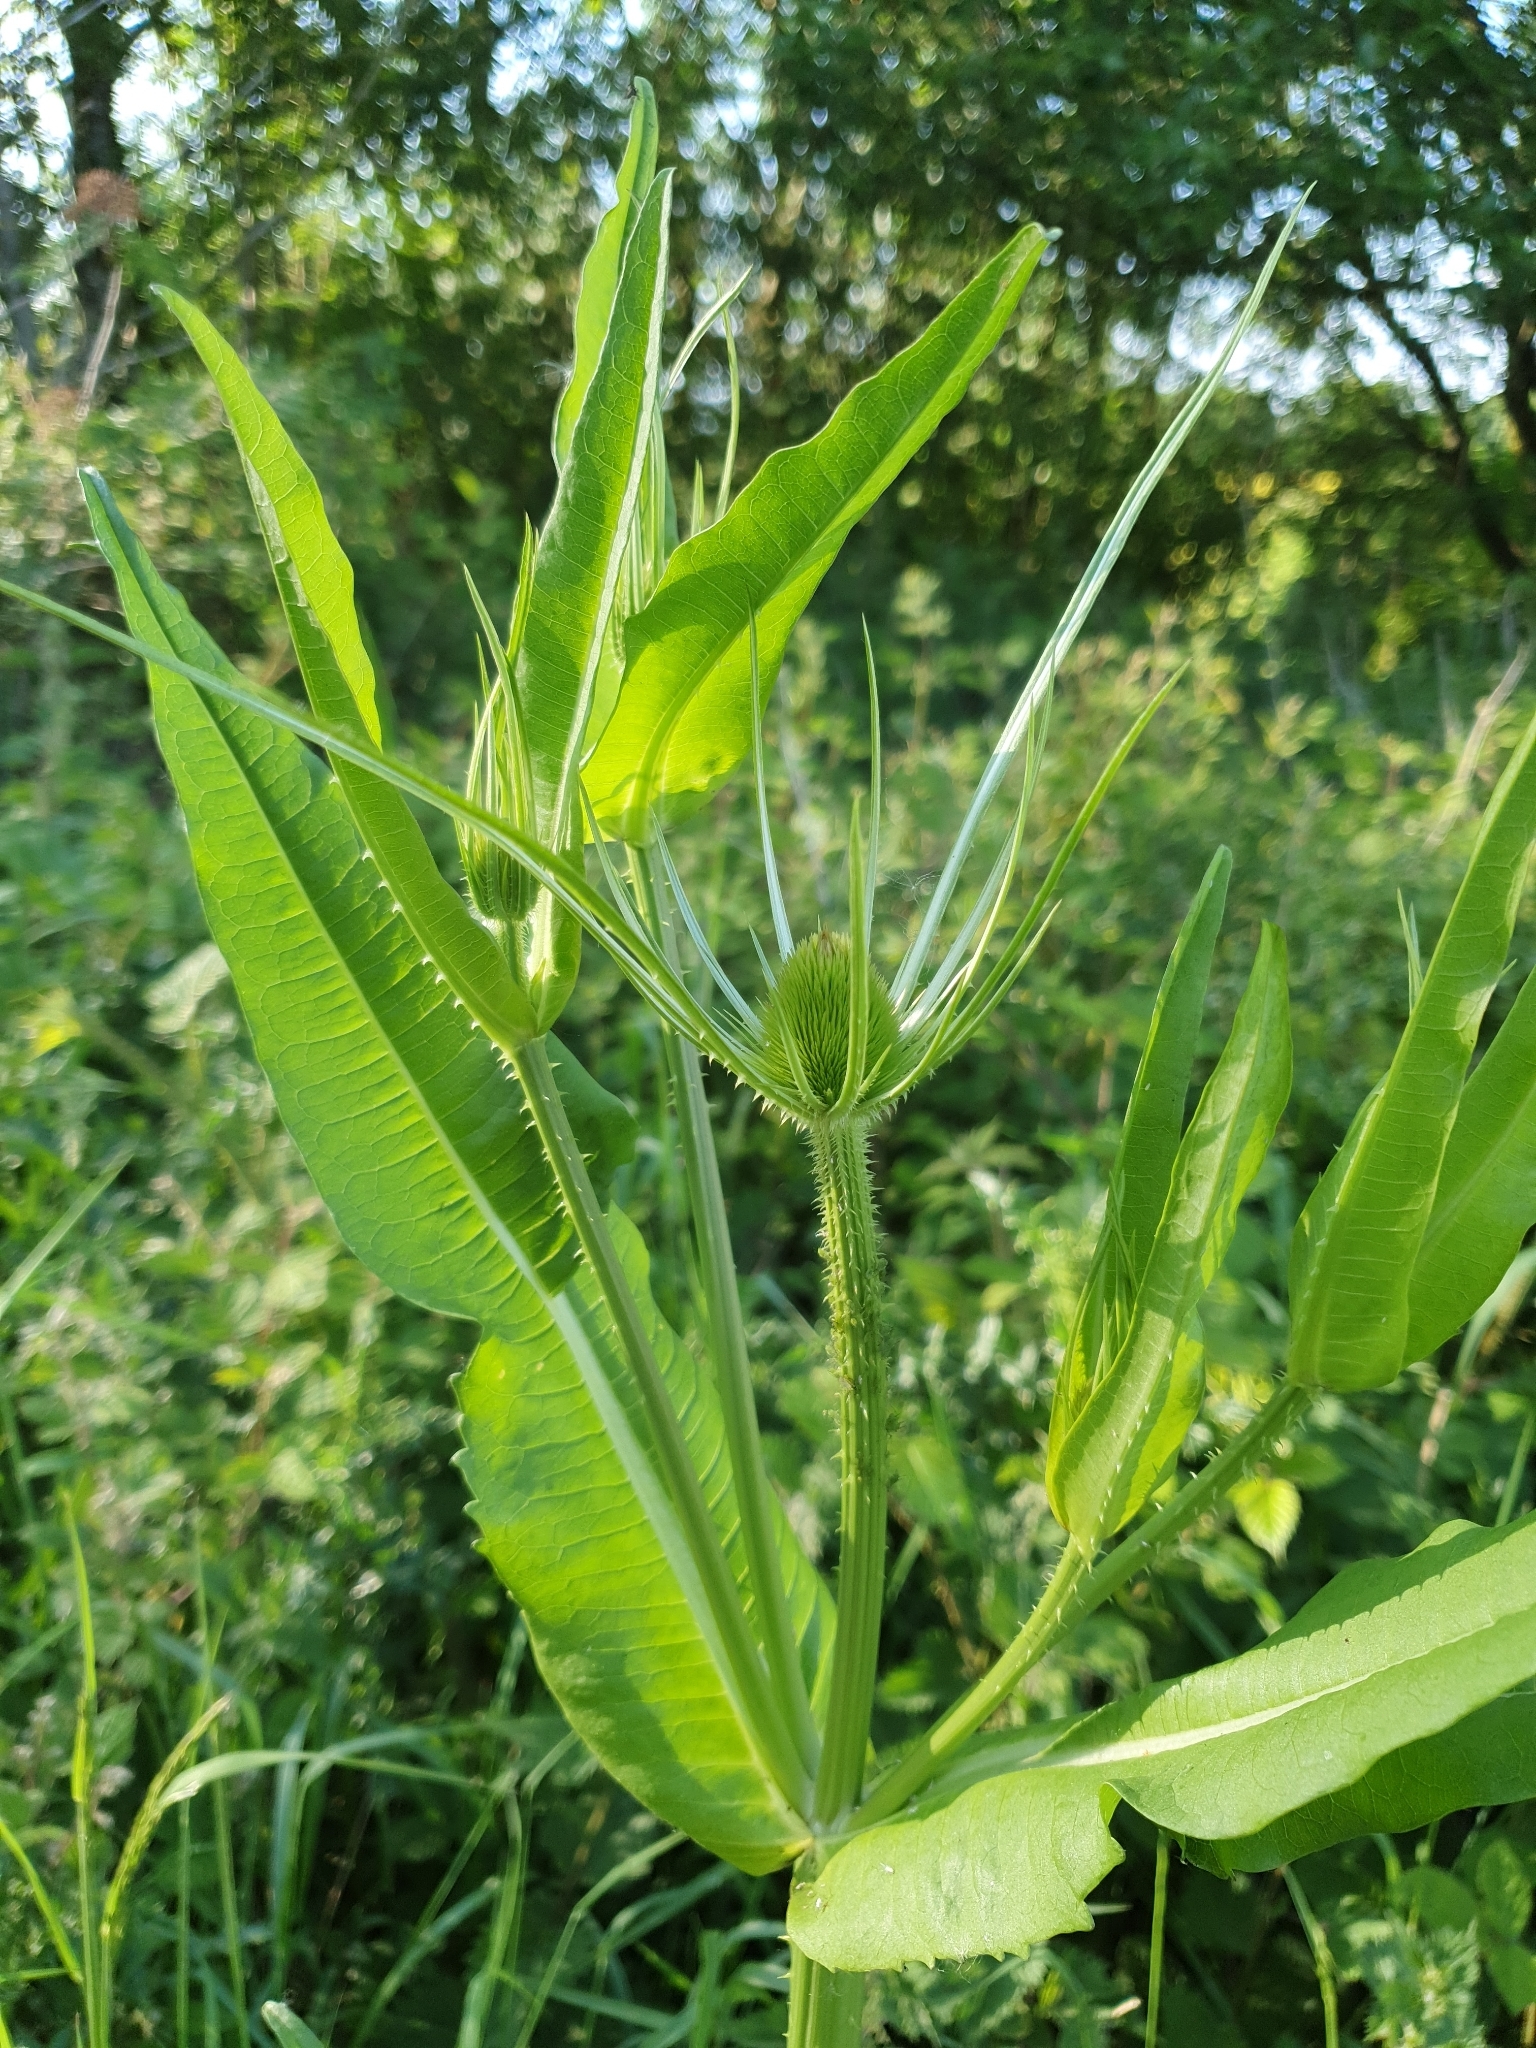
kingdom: Plantae
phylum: Tracheophyta
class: Magnoliopsida
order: Dipsacales
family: Caprifoliaceae
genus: Dipsacus
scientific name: Dipsacus fullonum
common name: Teasel
